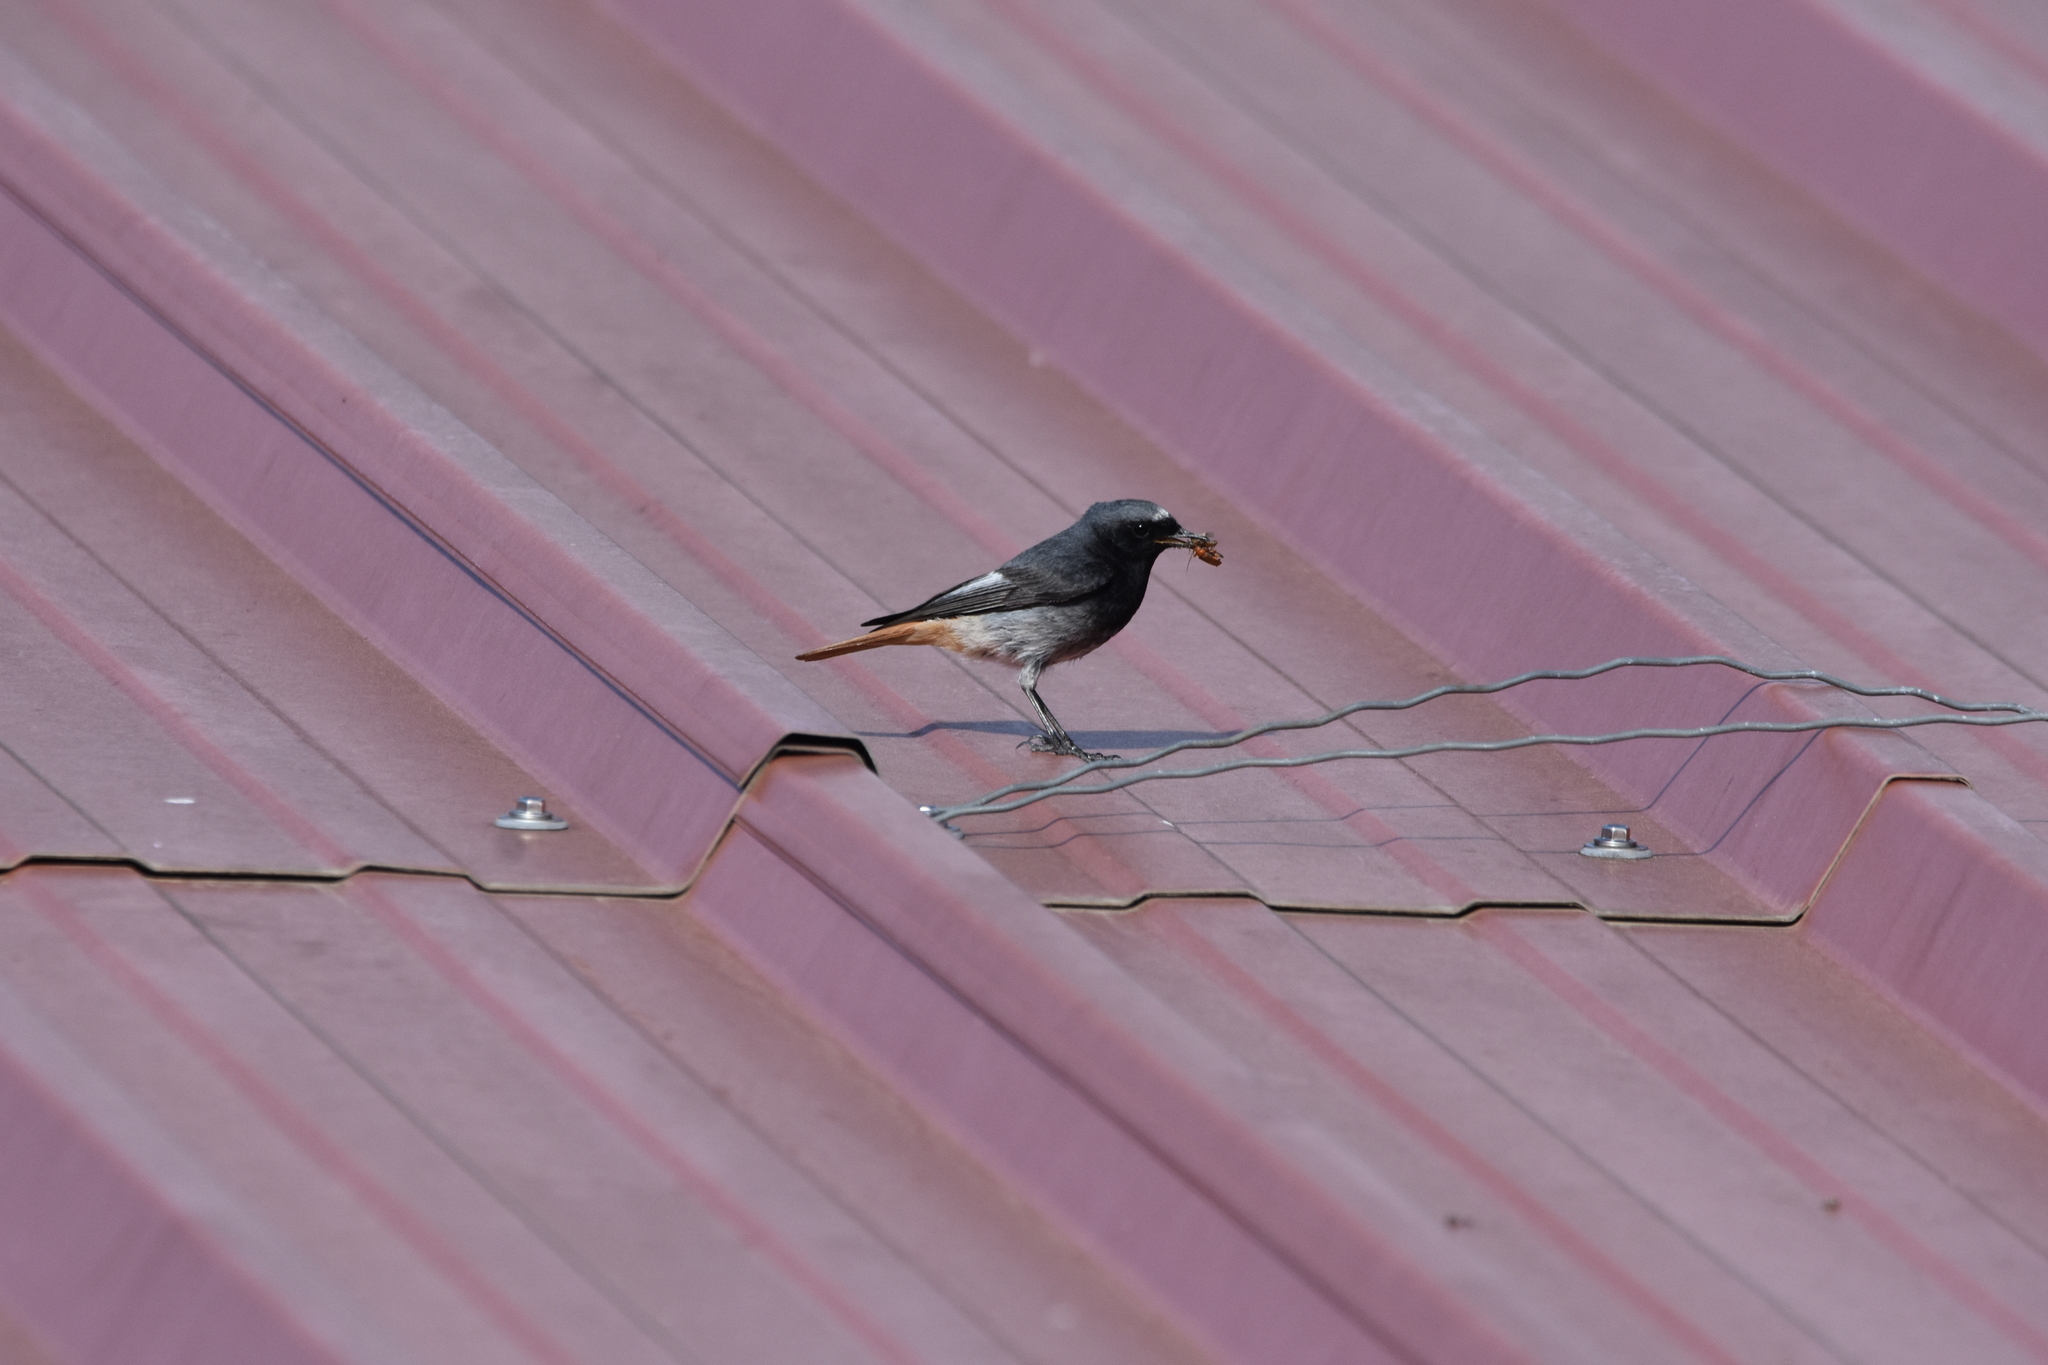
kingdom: Animalia
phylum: Chordata
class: Aves
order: Passeriformes
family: Muscicapidae
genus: Phoenicurus
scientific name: Phoenicurus ochruros
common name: Black redstart
